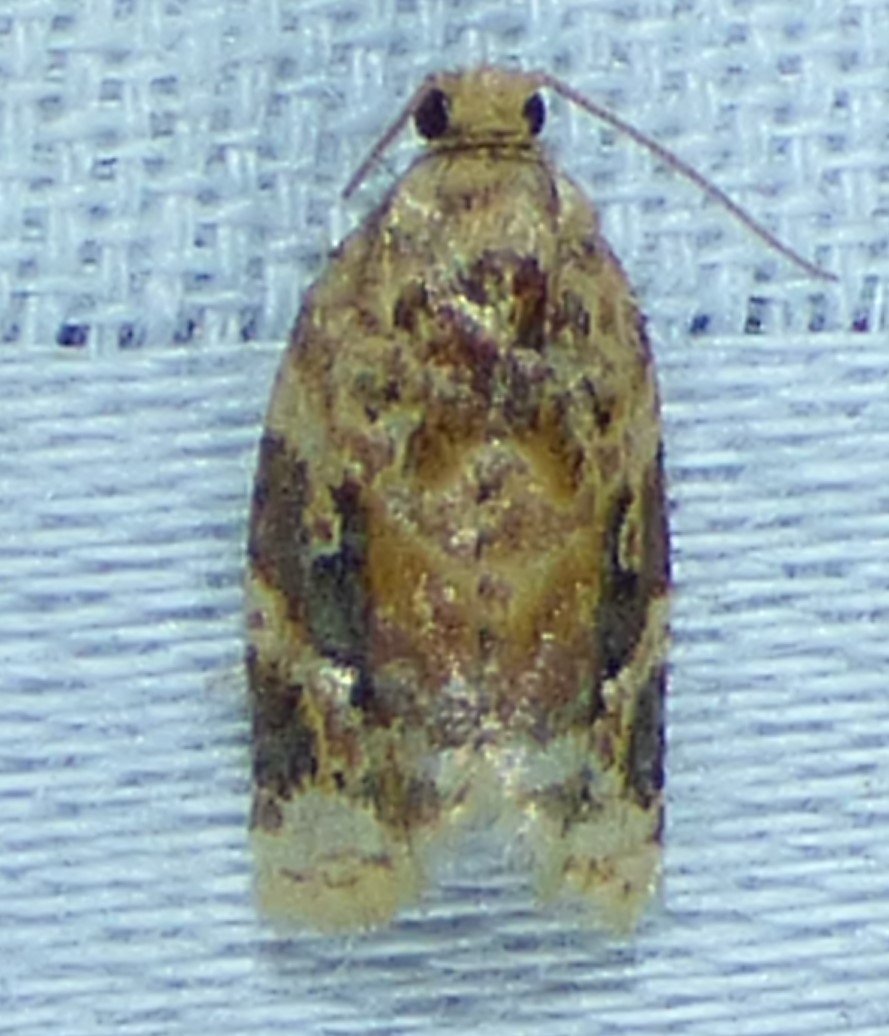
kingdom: Animalia
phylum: Arthropoda
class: Insecta
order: Lepidoptera
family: Tortricidae
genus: Argyrotaenia
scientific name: Argyrotaenia velutinana
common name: Red-banded leafroller moth
